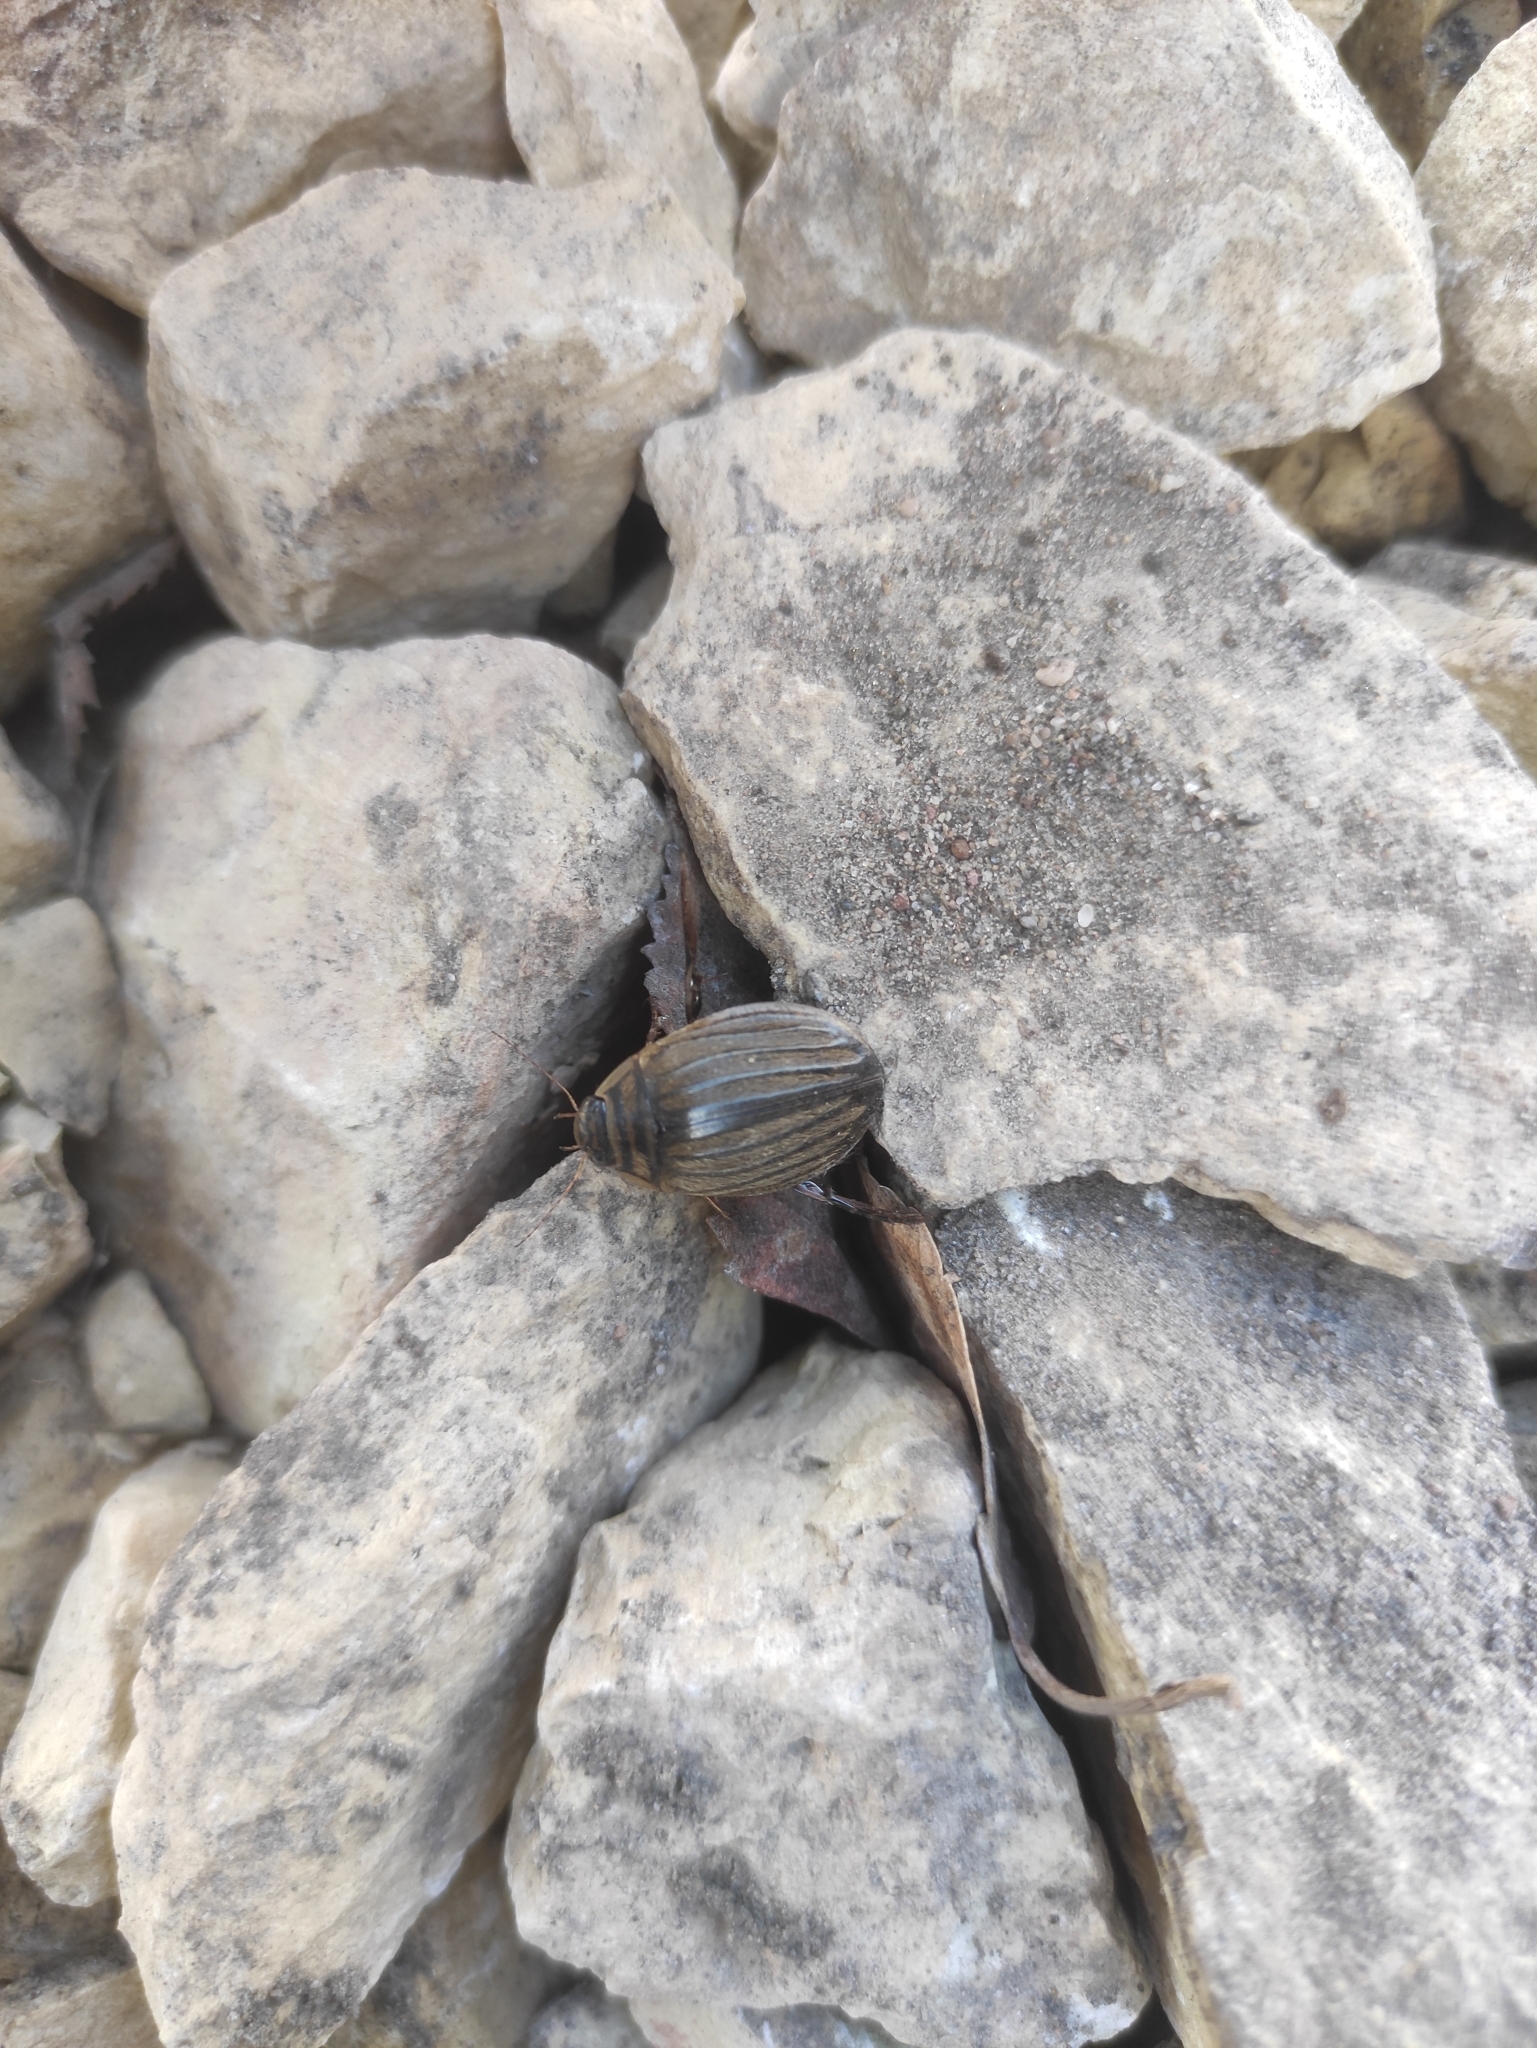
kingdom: Animalia
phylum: Arthropoda
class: Insecta
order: Coleoptera
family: Dytiscidae
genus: Acilius
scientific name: Acilius sulcatus
